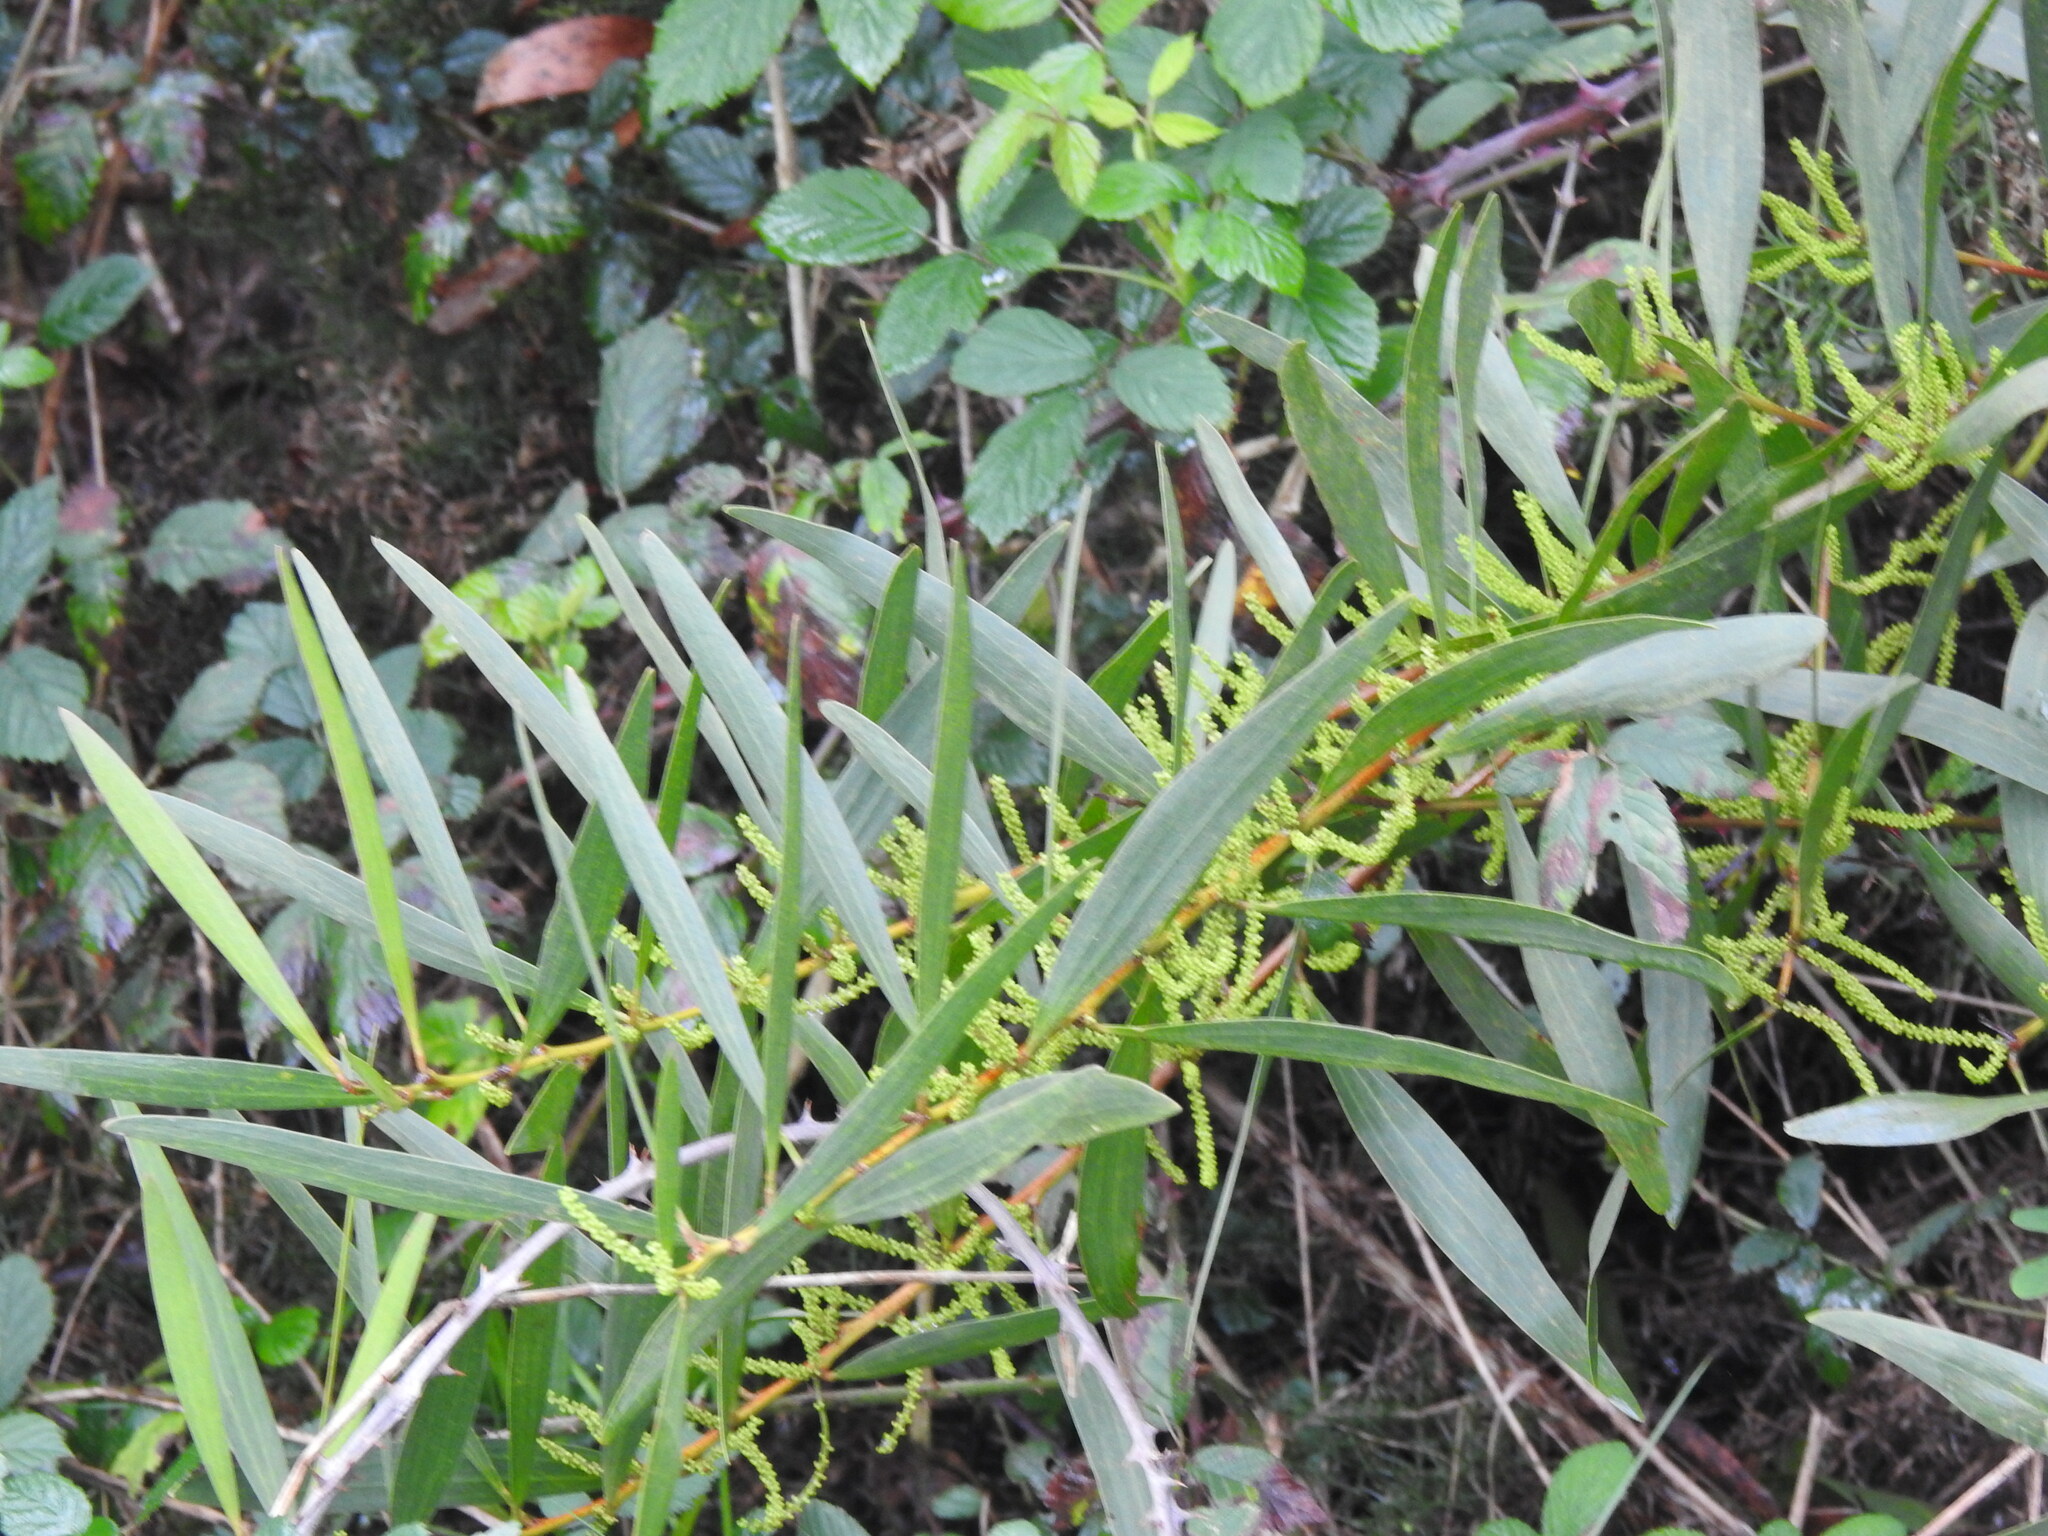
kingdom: Plantae
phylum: Tracheophyta
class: Magnoliopsida
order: Fabales
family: Fabaceae
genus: Acacia
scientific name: Acacia longifolia
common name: Sydney golden wattle
